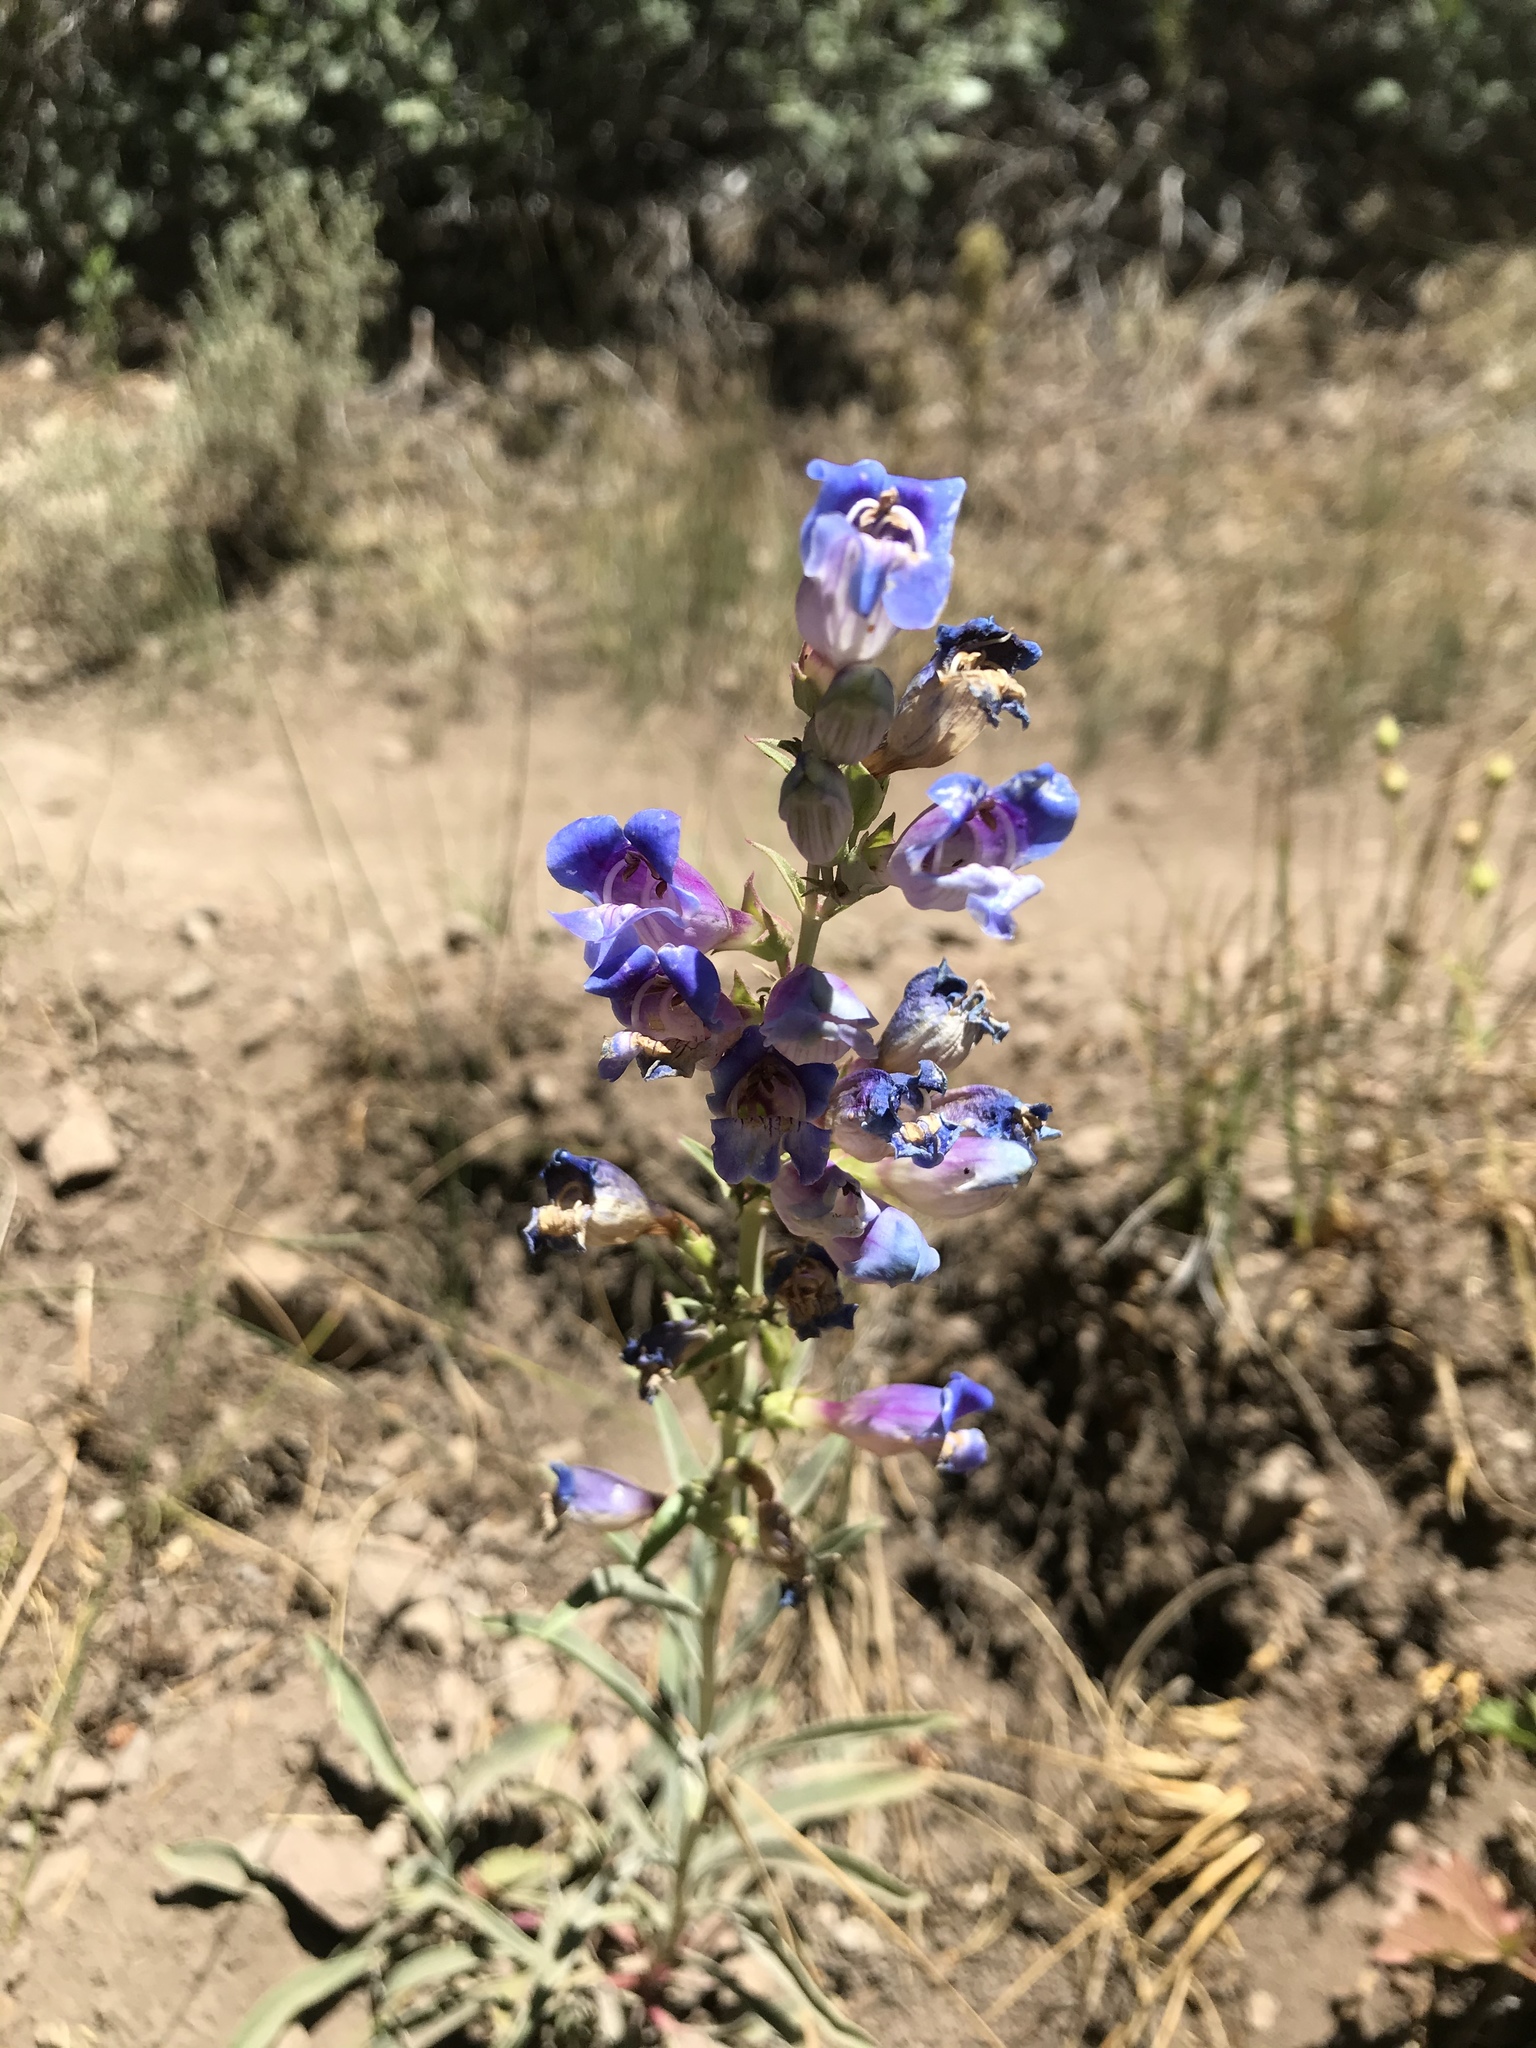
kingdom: Plantae
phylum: Tracheophyta
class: Magnoliopsida
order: Lamiales
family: Plantaginaceae
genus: Penstemon
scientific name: Penstemon speciosus
